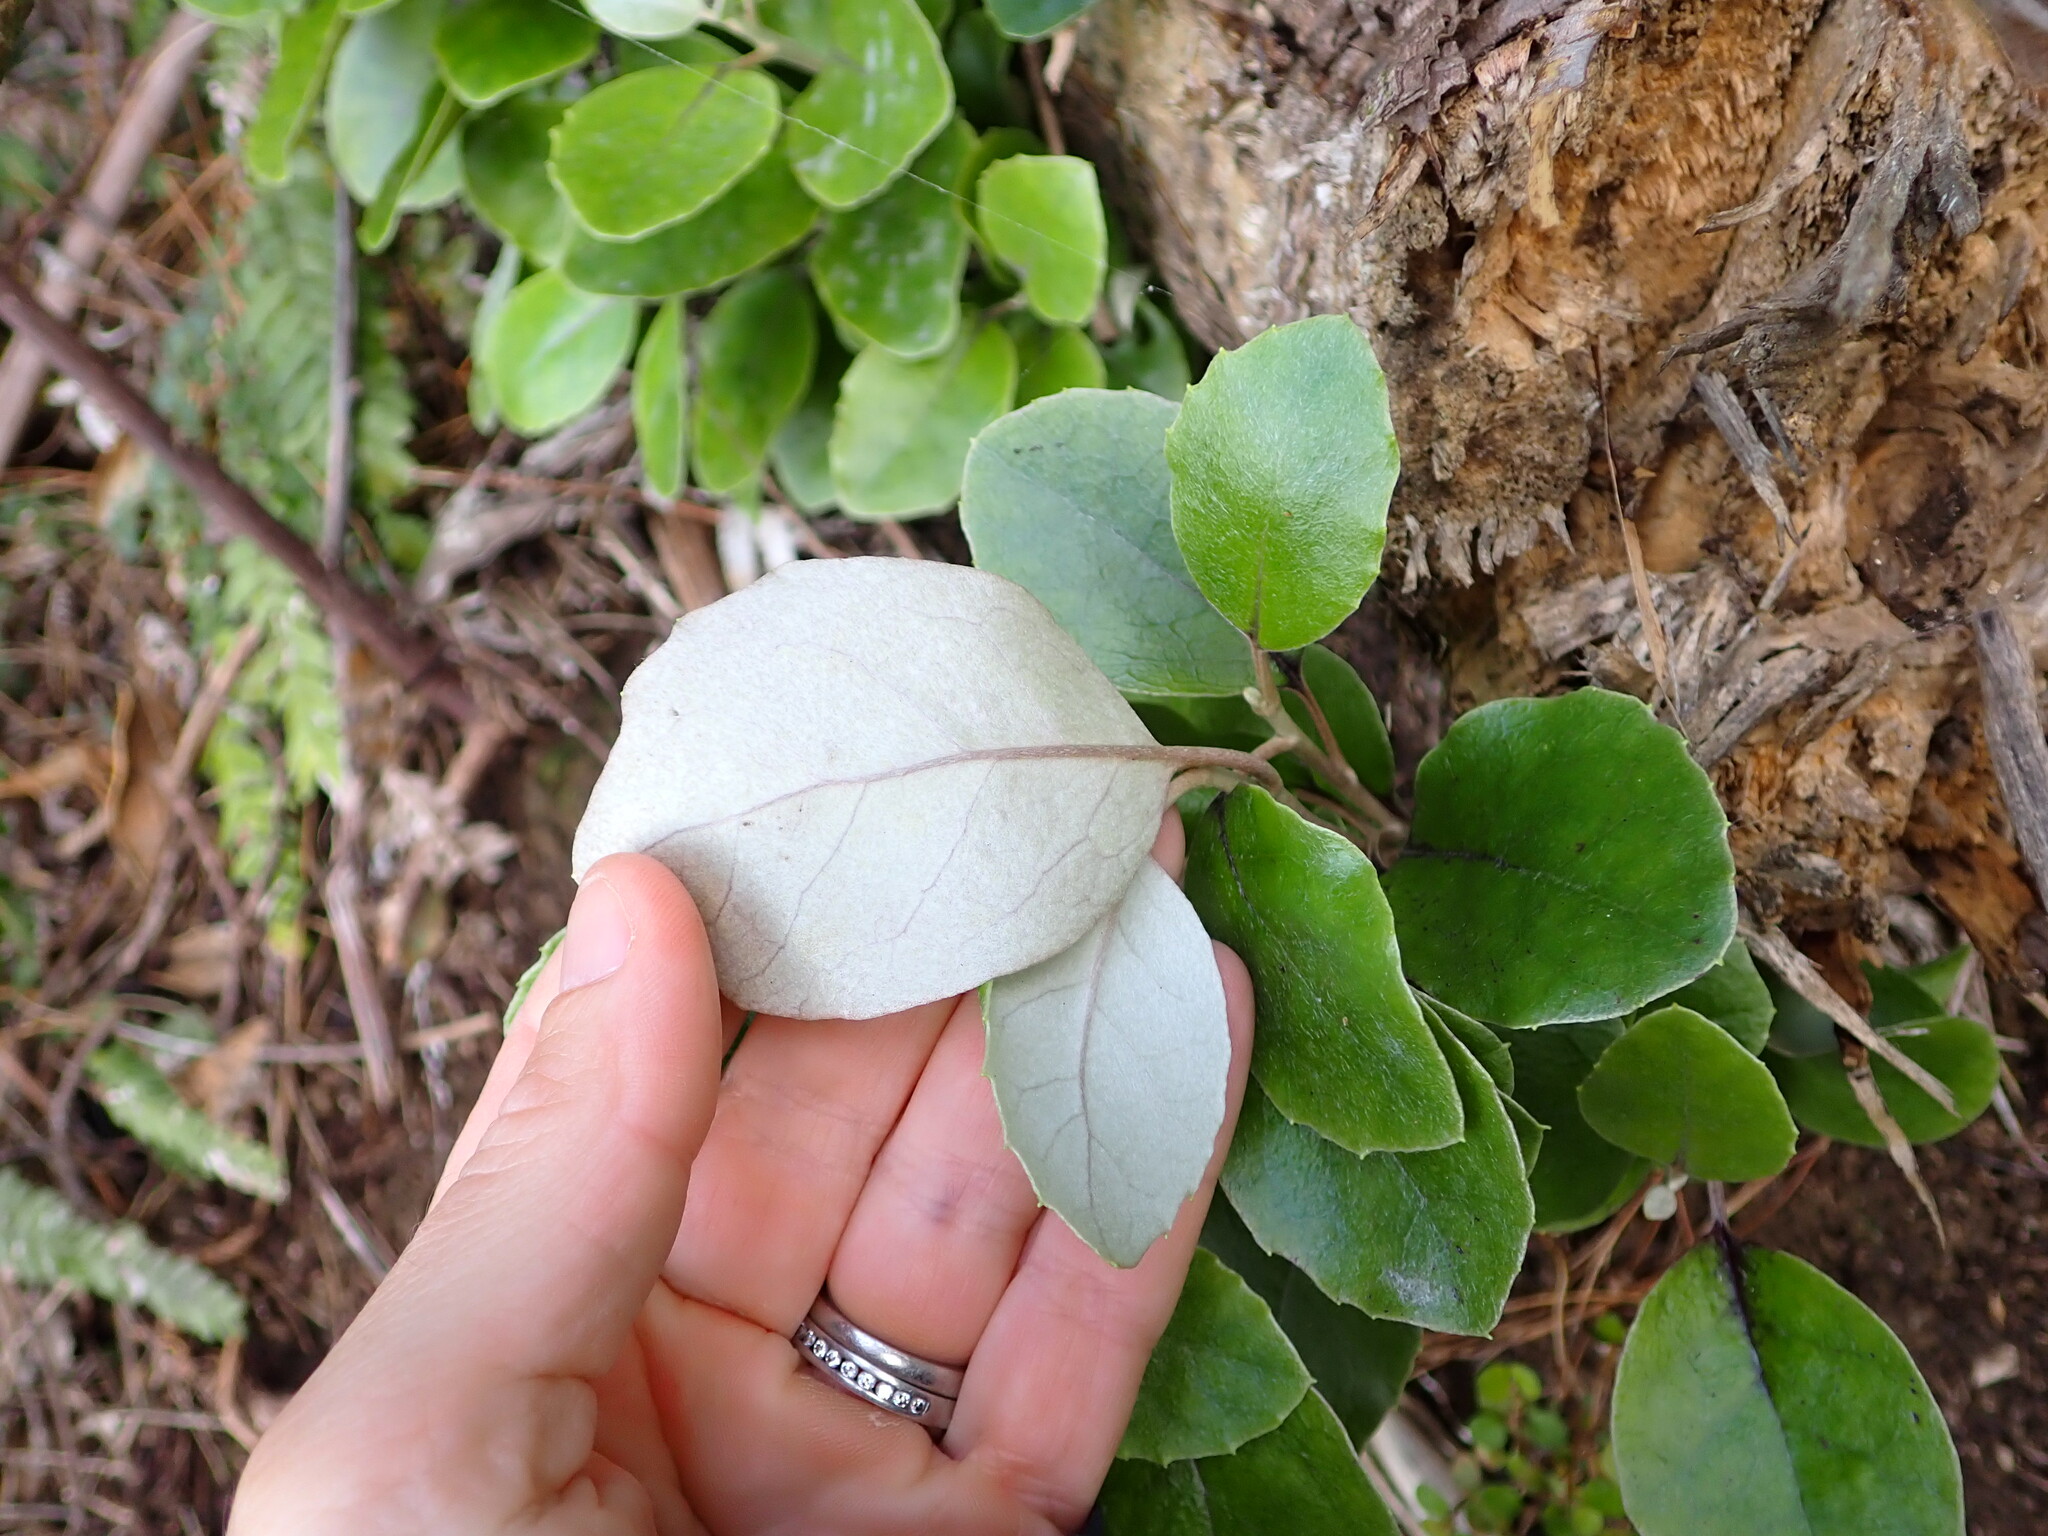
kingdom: Plantae
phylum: Tracheophyta
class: Magnoliopsida
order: Asterales
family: Asteraceae
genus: Olearia
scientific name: Olearia furfuracea
